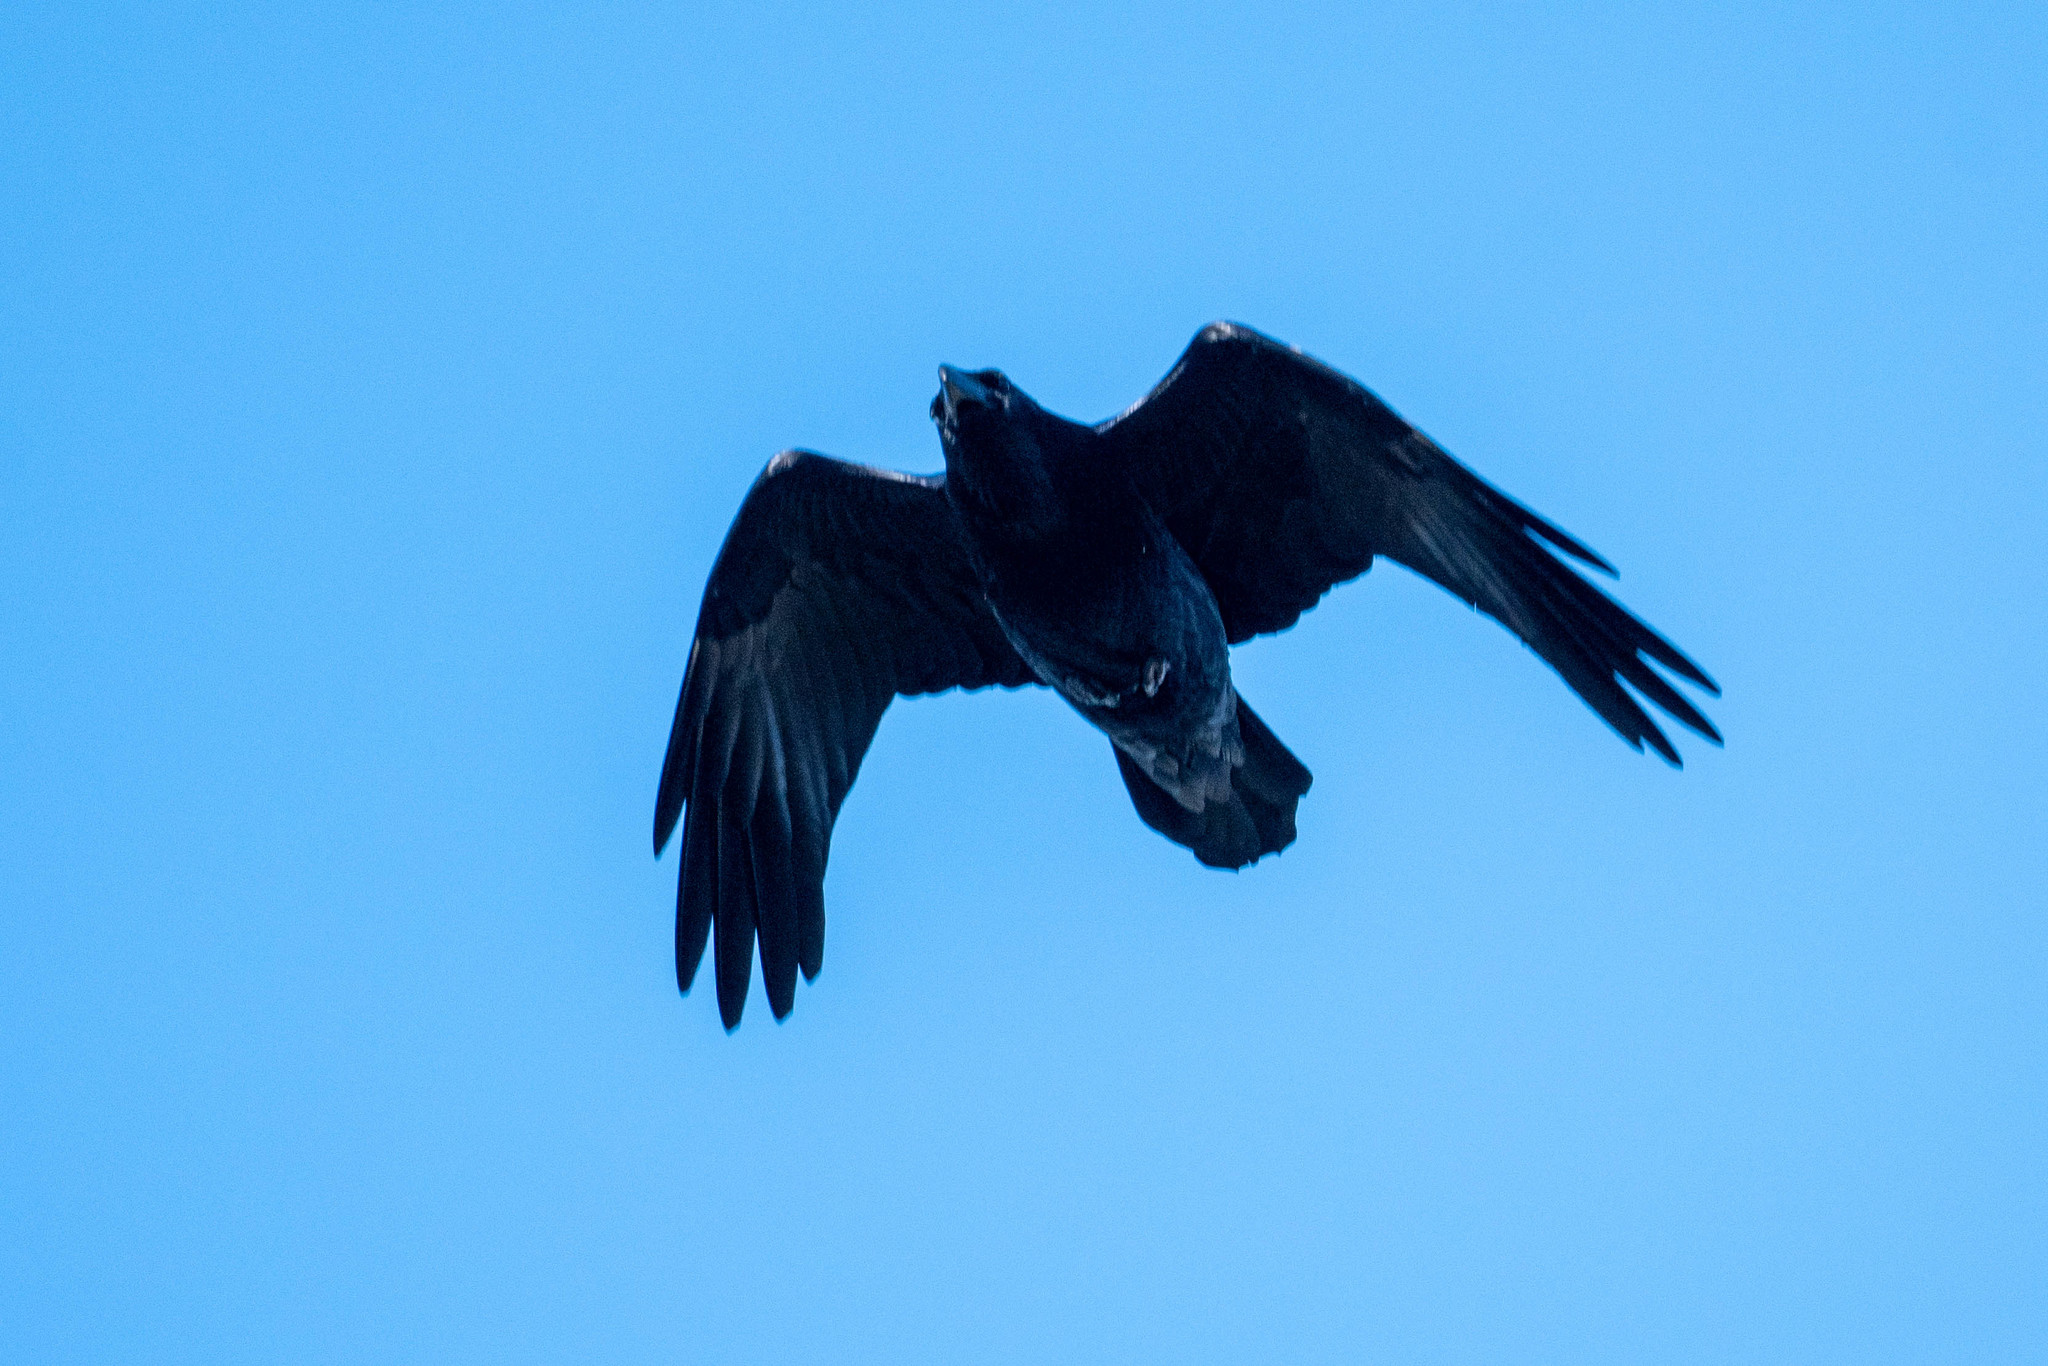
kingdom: Animalia
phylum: Chordata
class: Aves
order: Passeriformes
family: Corvidae
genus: Corvus
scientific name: Corvus corax
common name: Common raven
